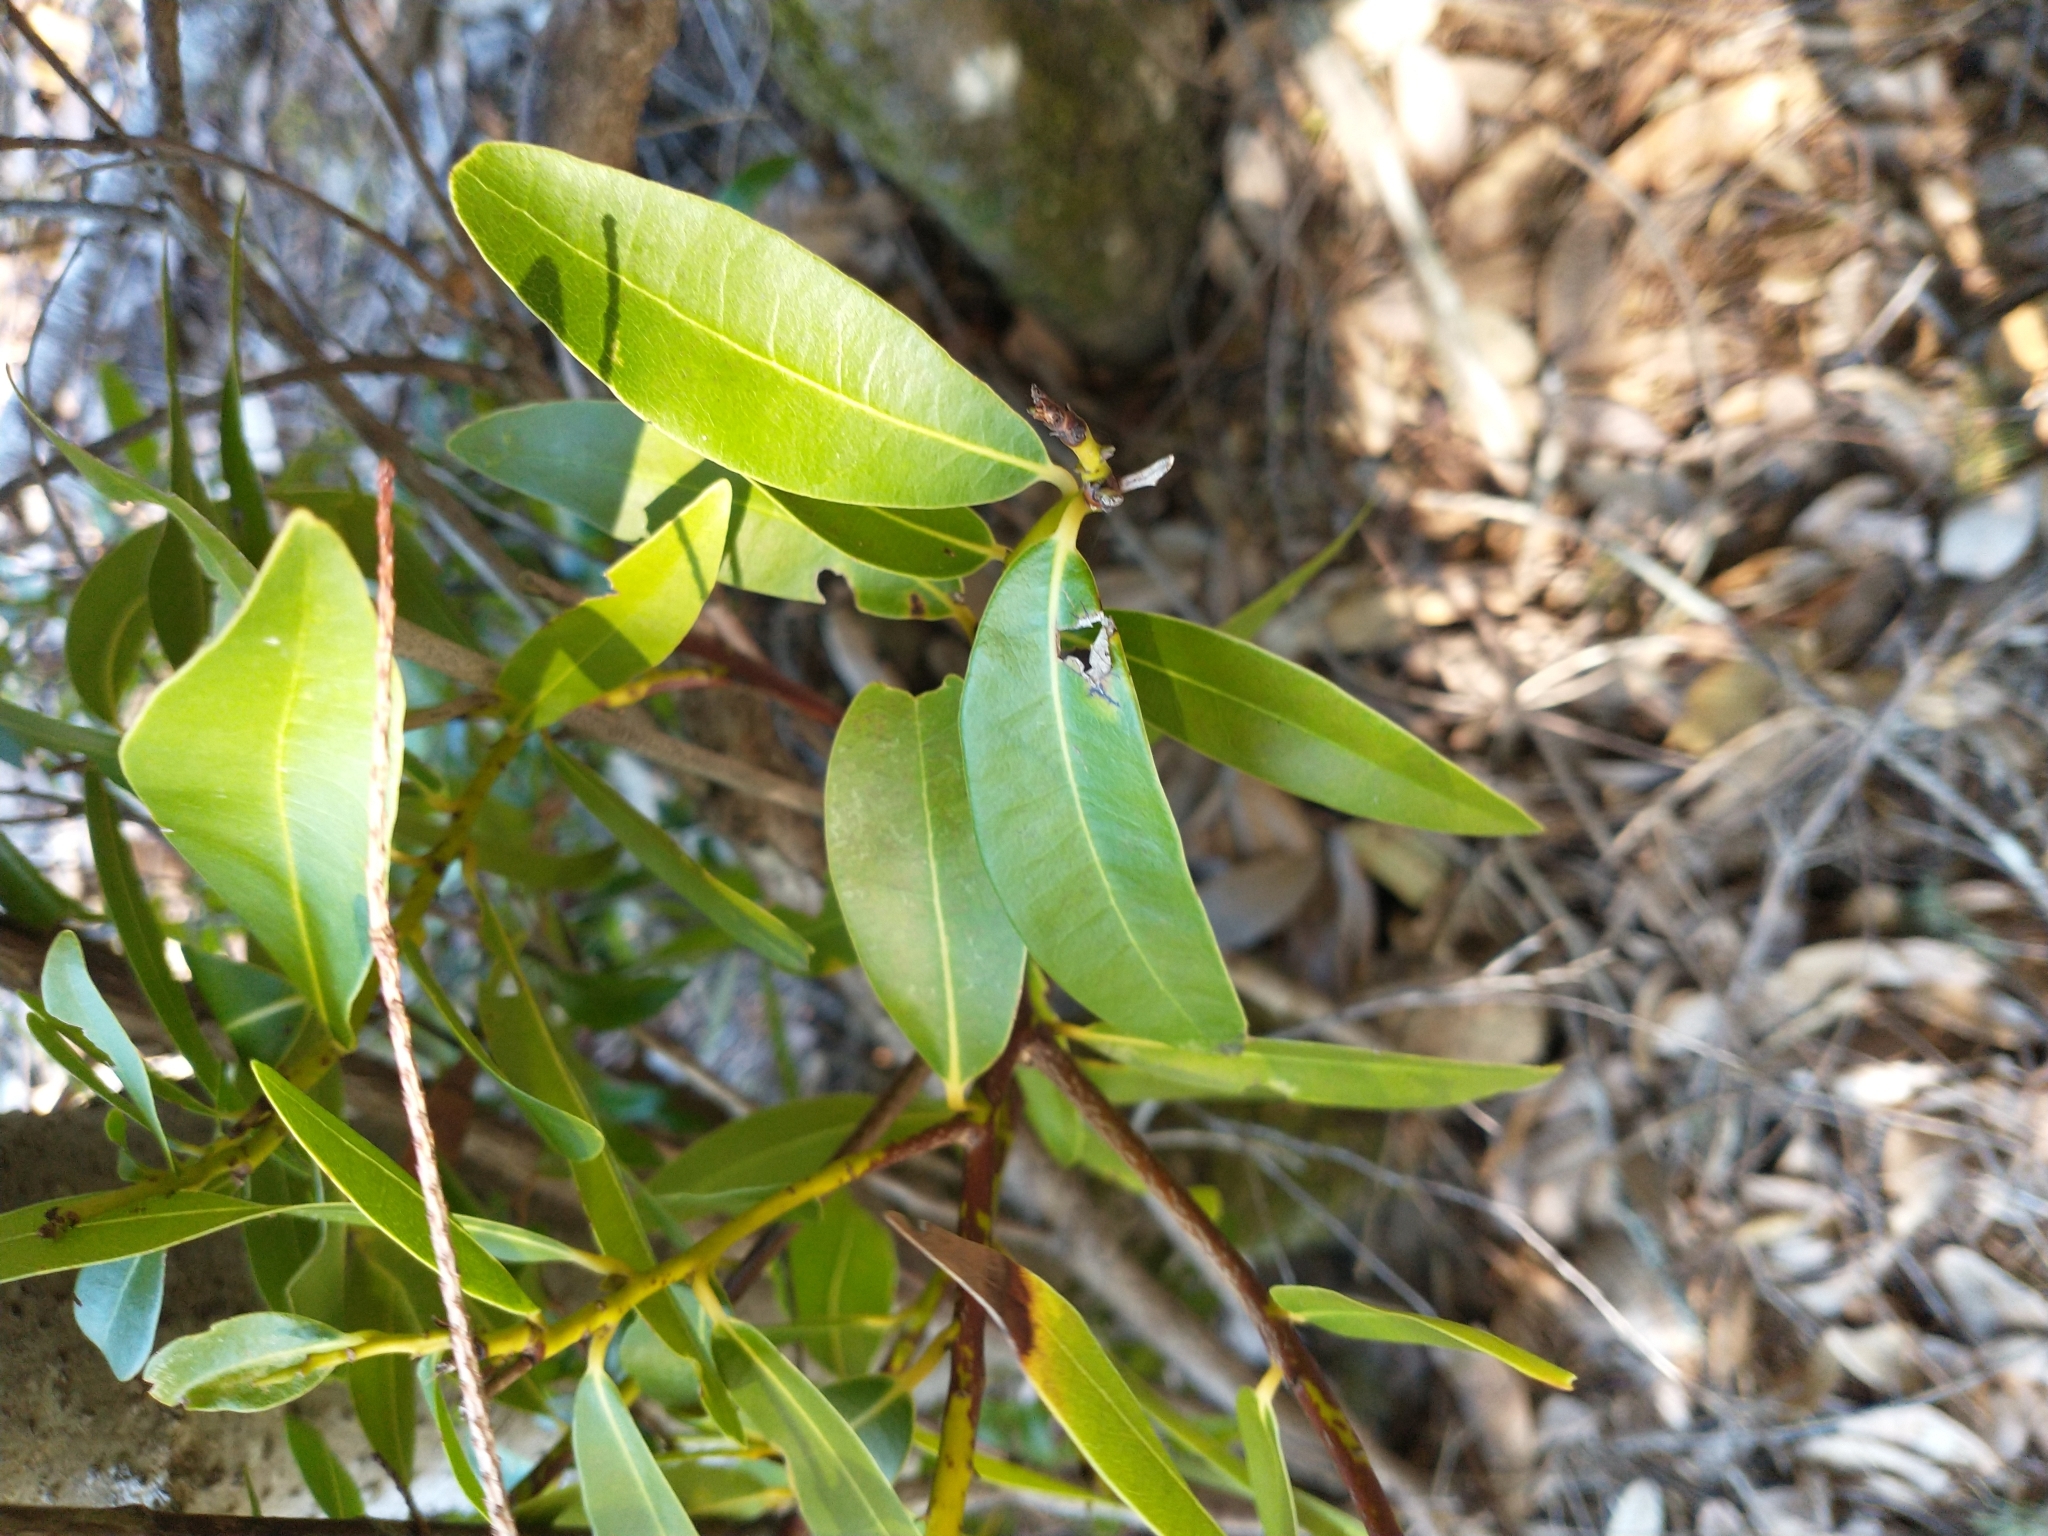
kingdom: Plantae
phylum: Tracheophyta
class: Magnoliopsida
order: Laurales
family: Lauraceae
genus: Umbellularia
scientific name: Umbellularia californica
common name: California bay
